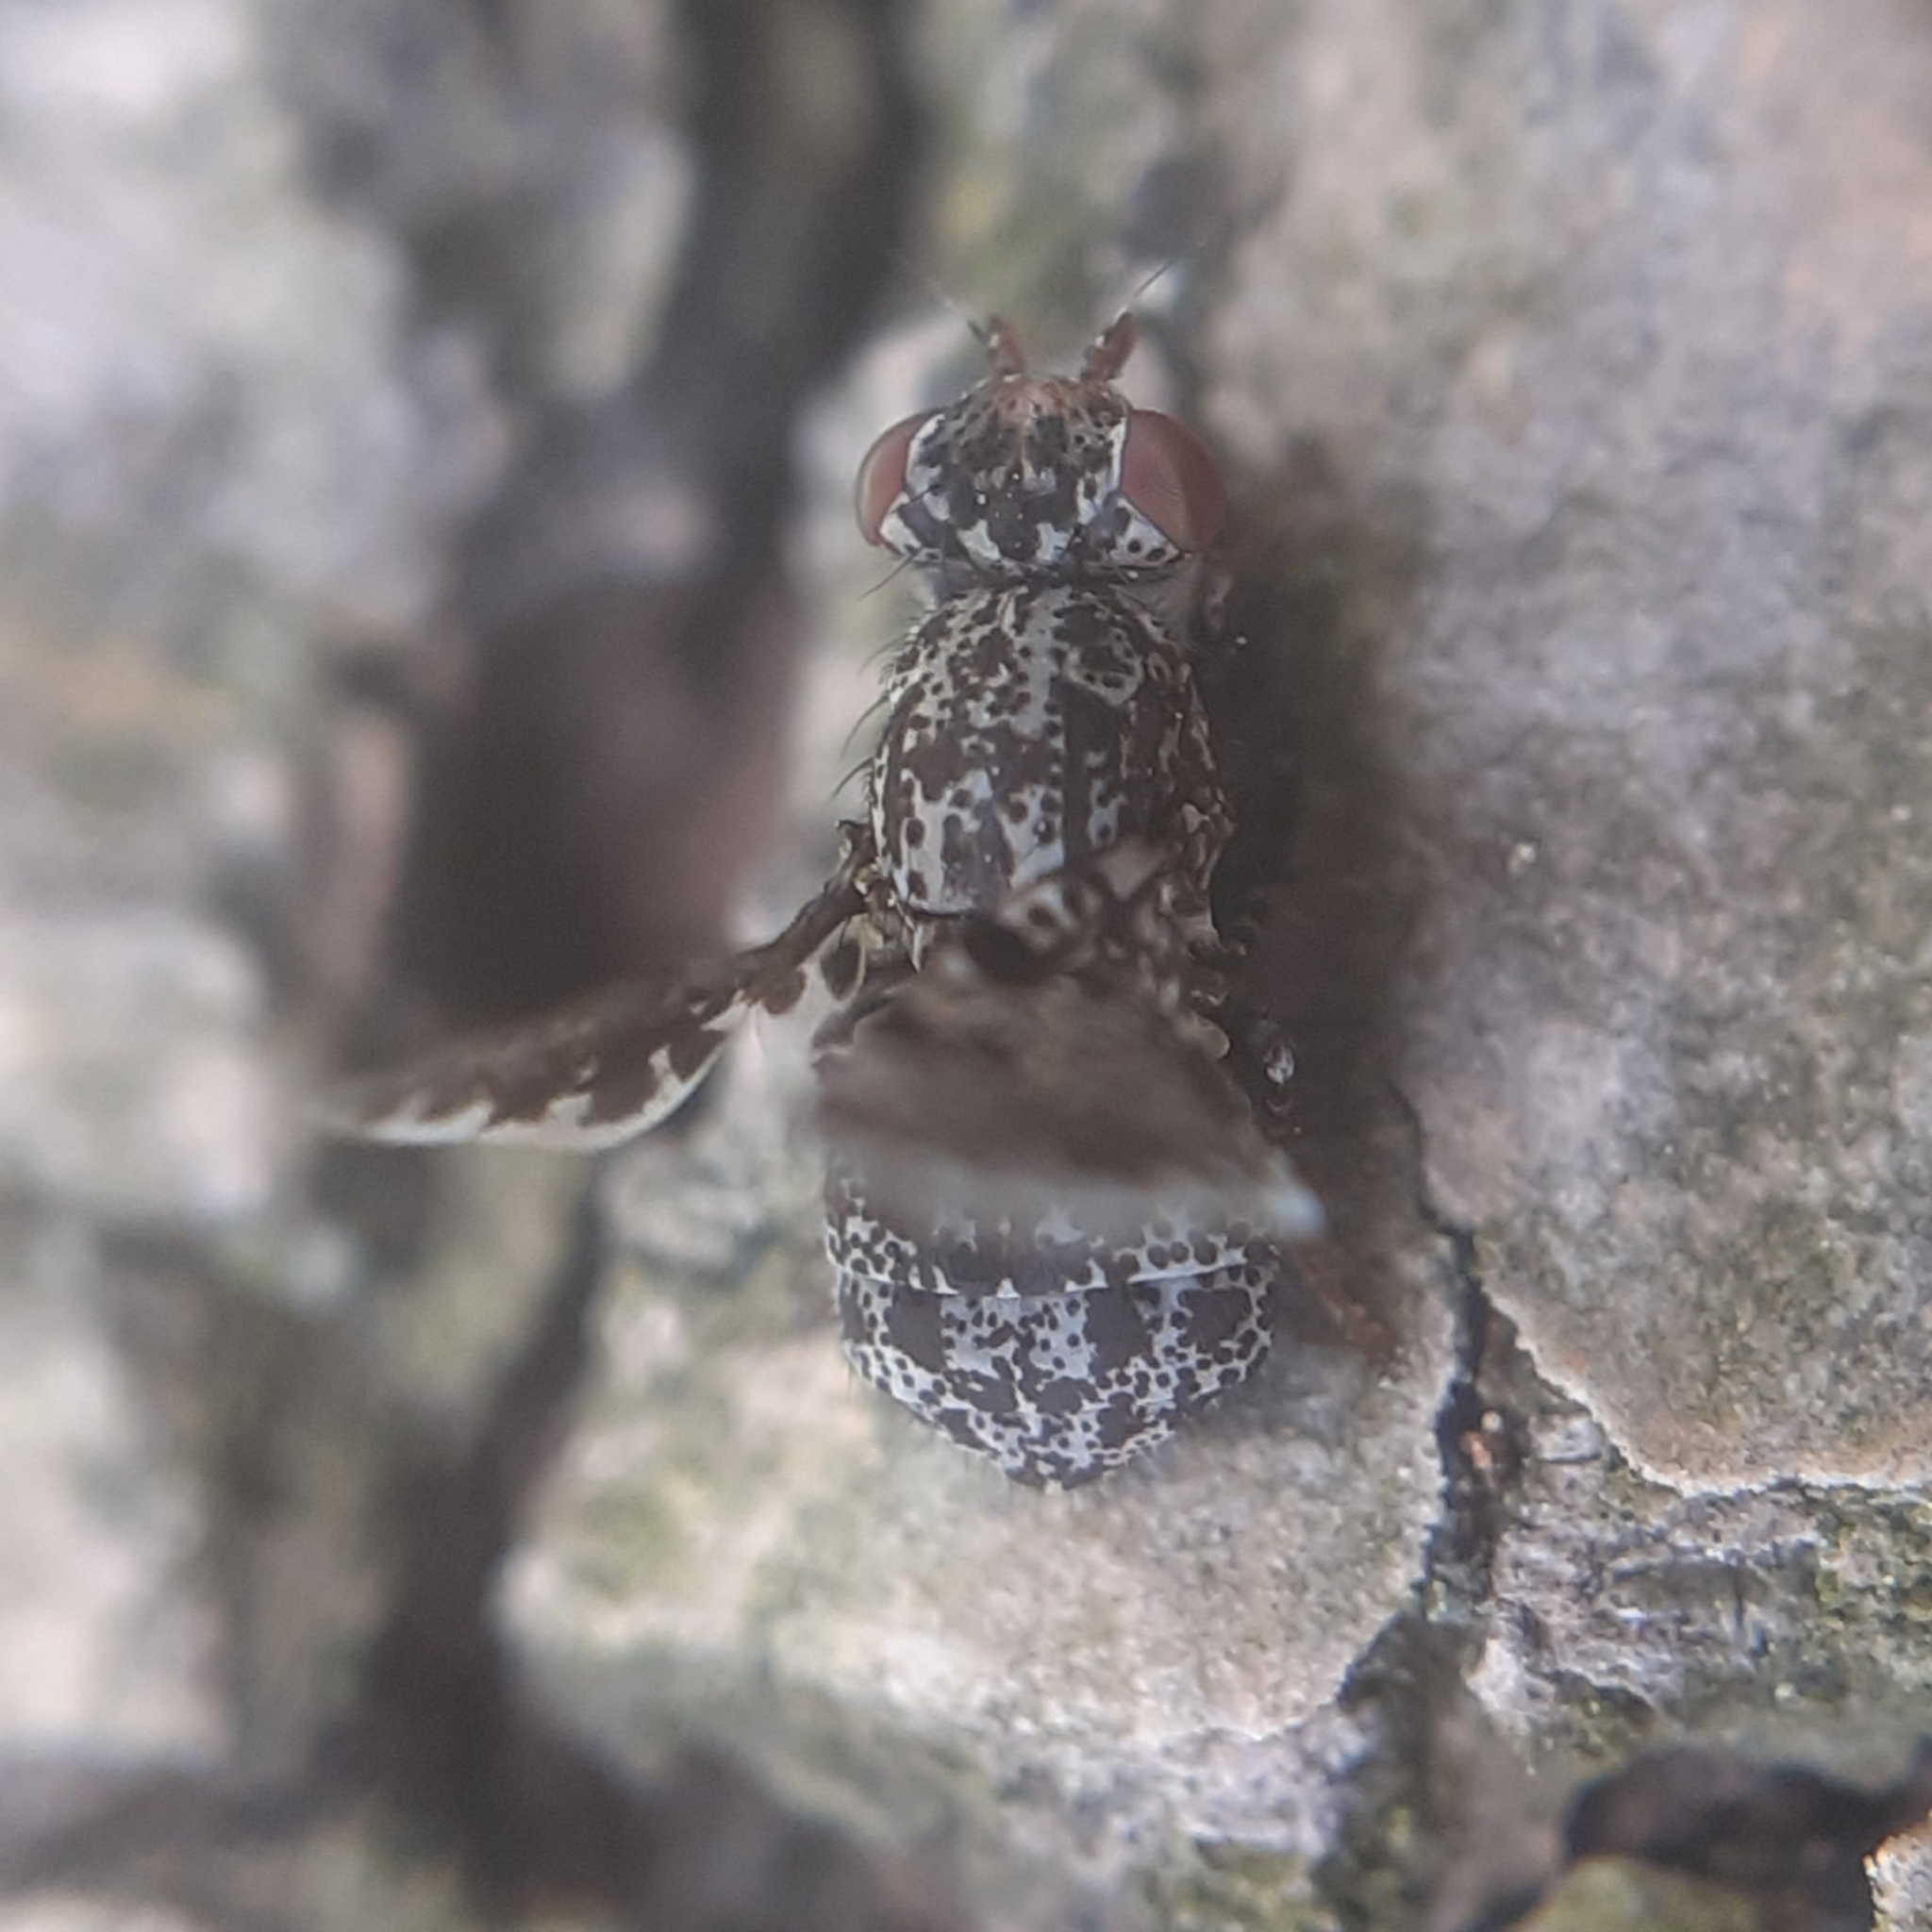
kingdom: Animalia
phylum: Arthropoda
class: Insecta
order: Diptera
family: Ulidiidae
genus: Callopistromyia
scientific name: Callopistromyia annulipes
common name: Peacock fly
